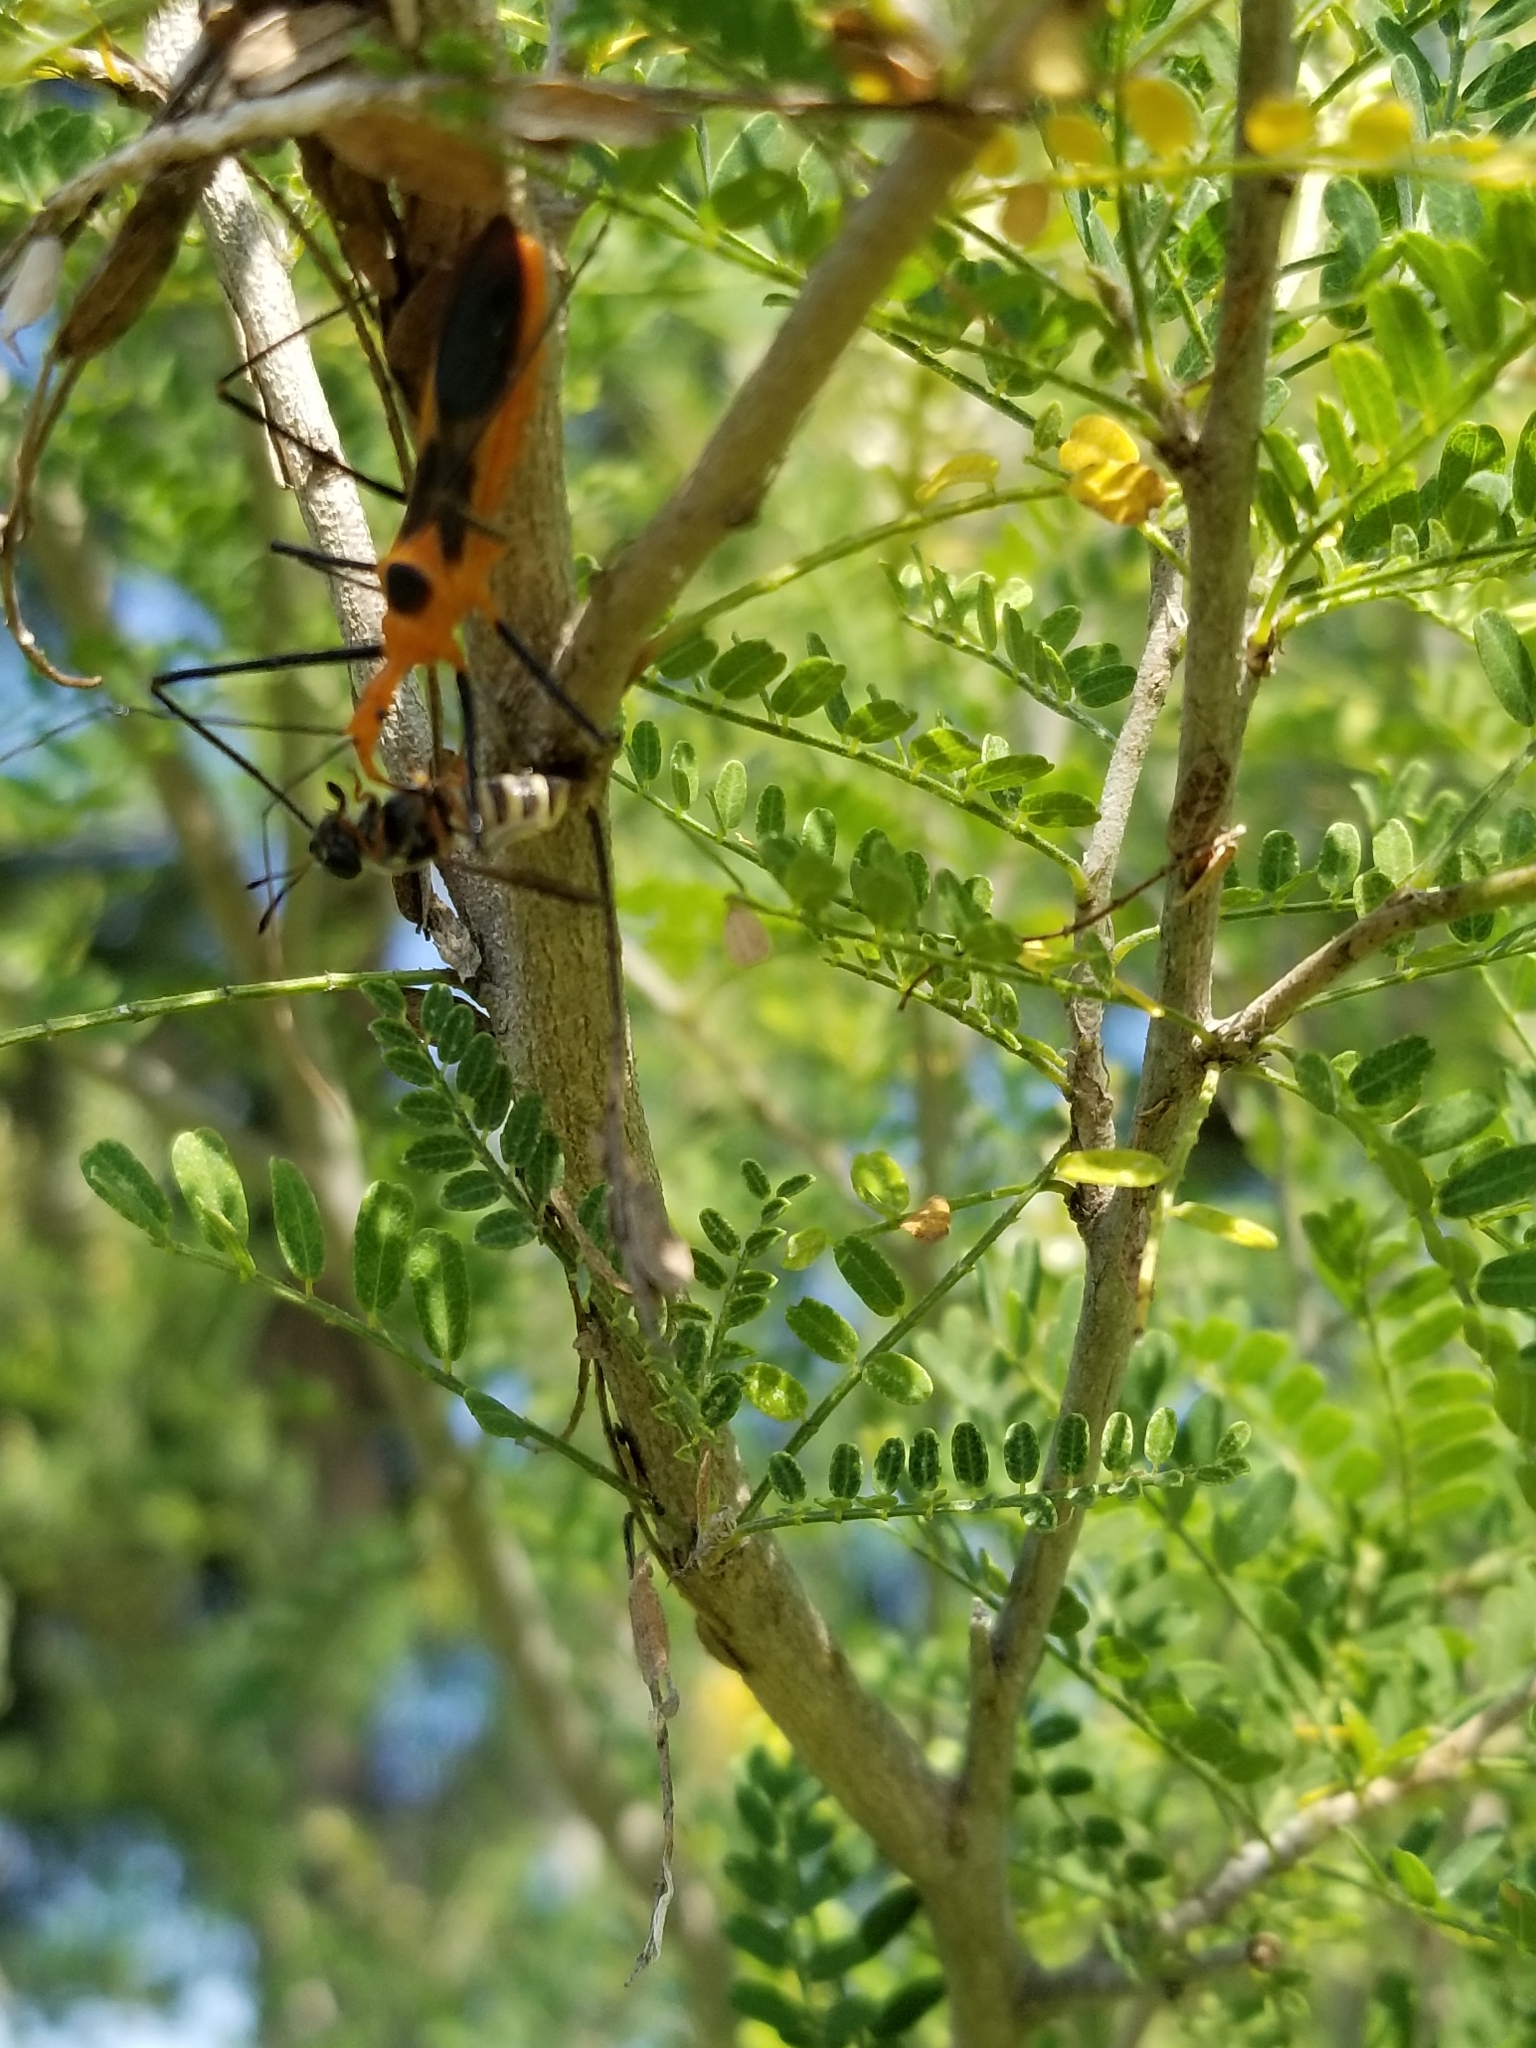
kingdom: Animalia
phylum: Arthropoda
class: Insecta
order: Hemiptera
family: Reduviidae
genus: Zelus
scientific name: Zelus longipes
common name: Milkweed assassin bug
